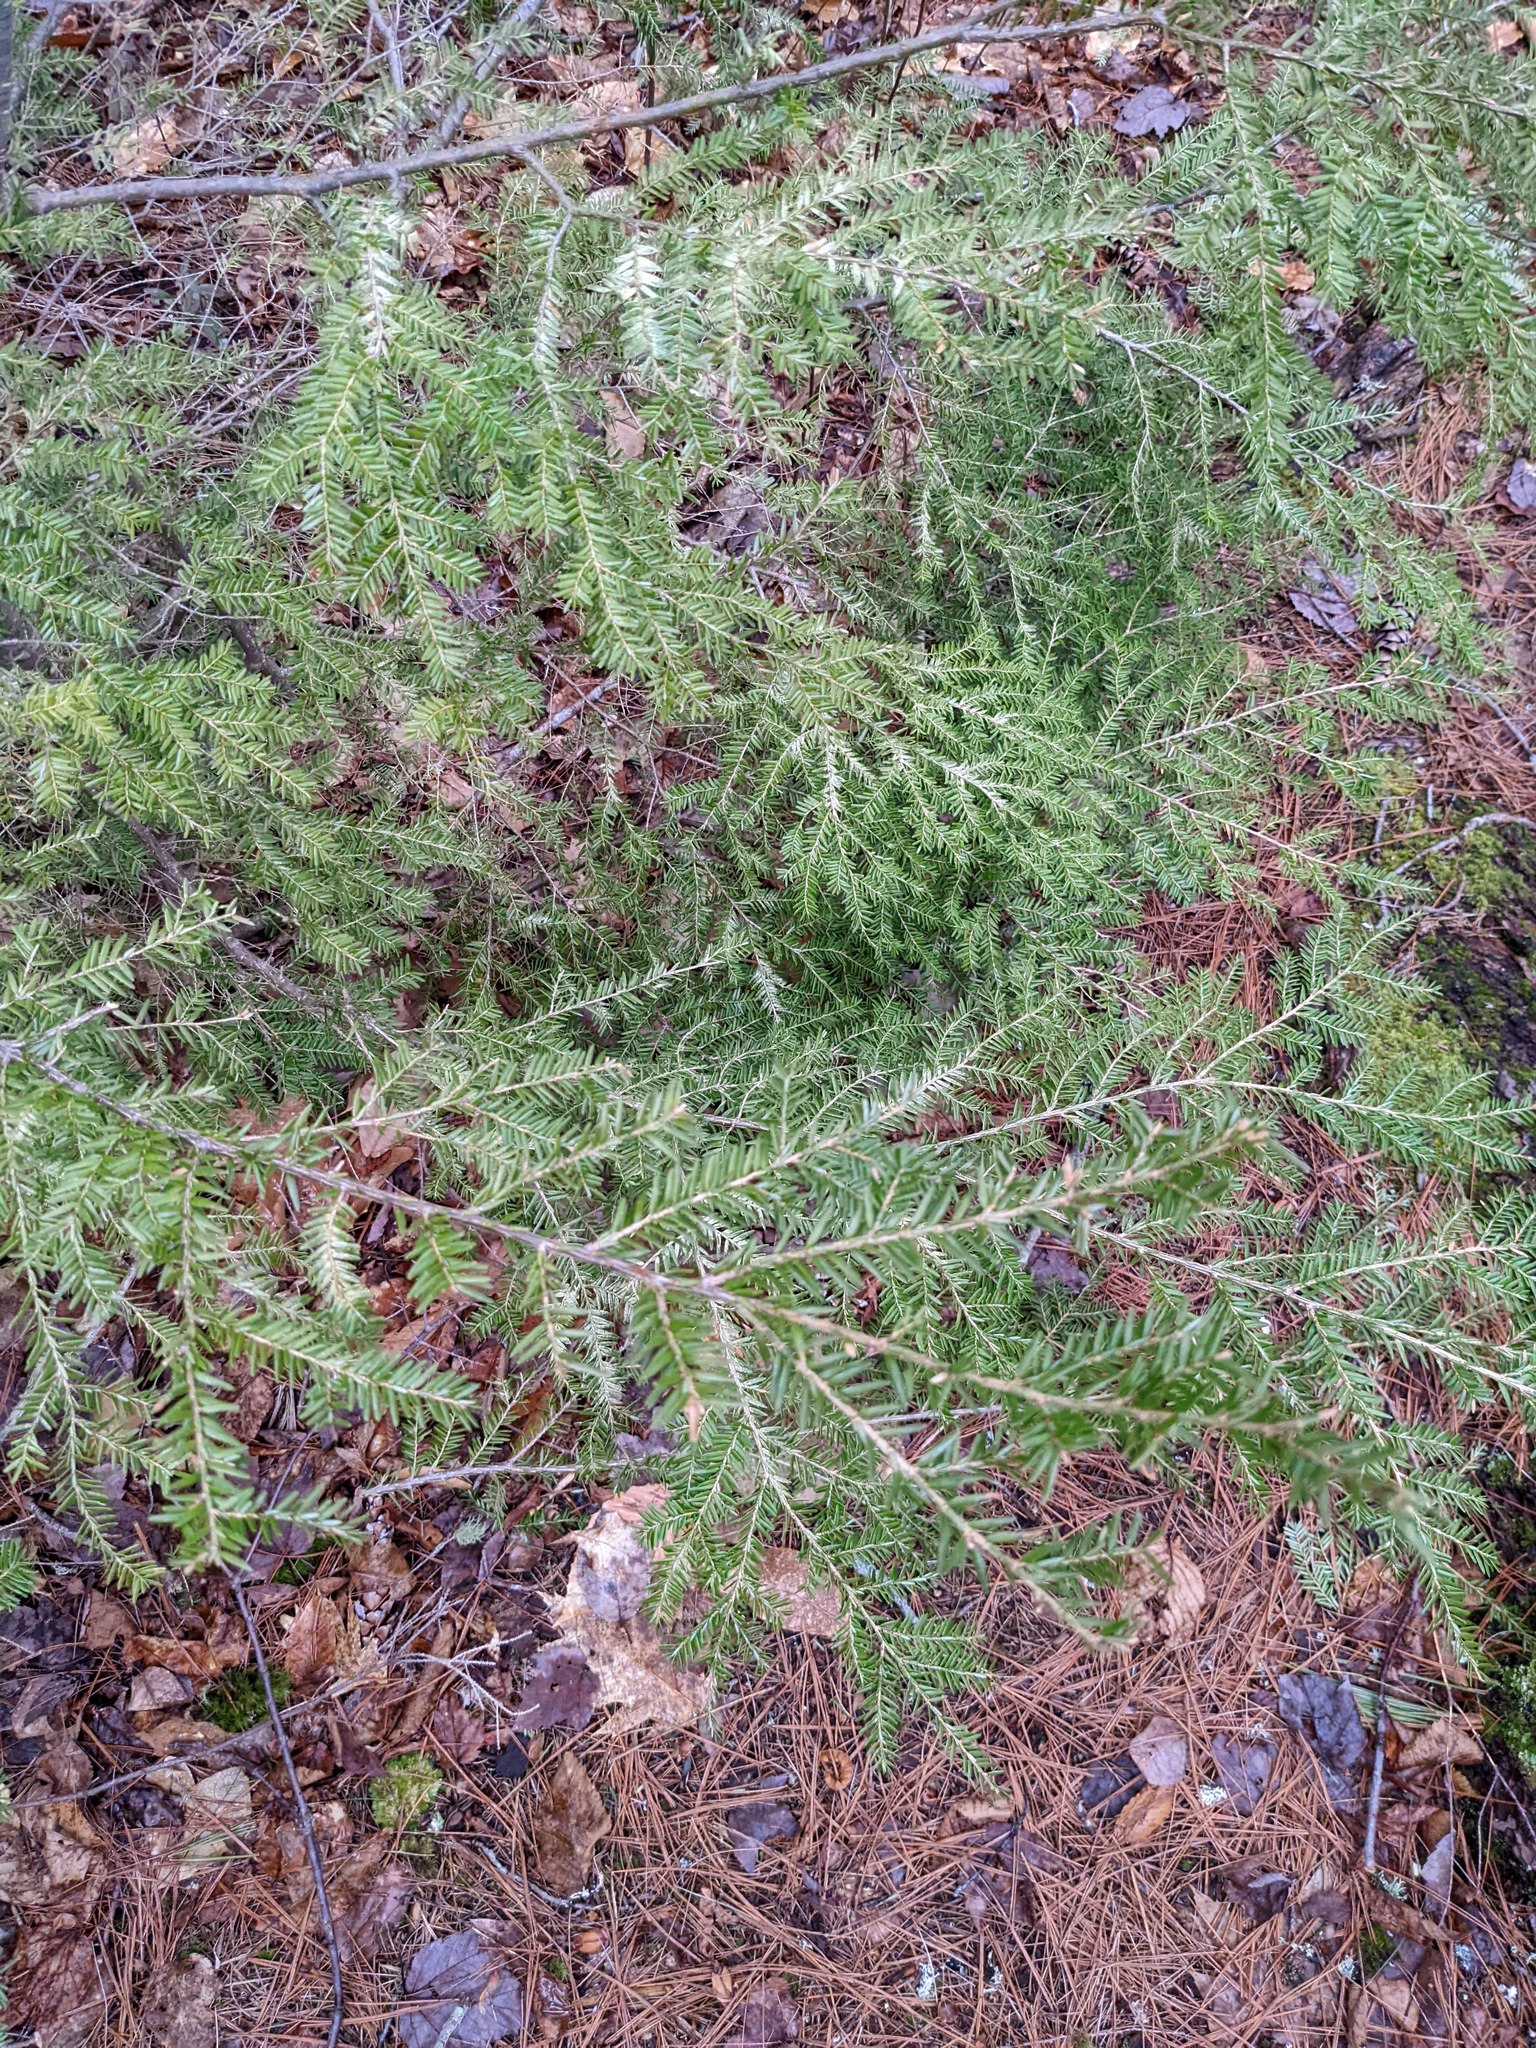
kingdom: Plantae
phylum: Tracheophyta
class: Pinopsida
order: Pinales
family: Pinaceae
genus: Tsuga
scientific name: Tsuga canadensis
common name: Eastern hemlock
